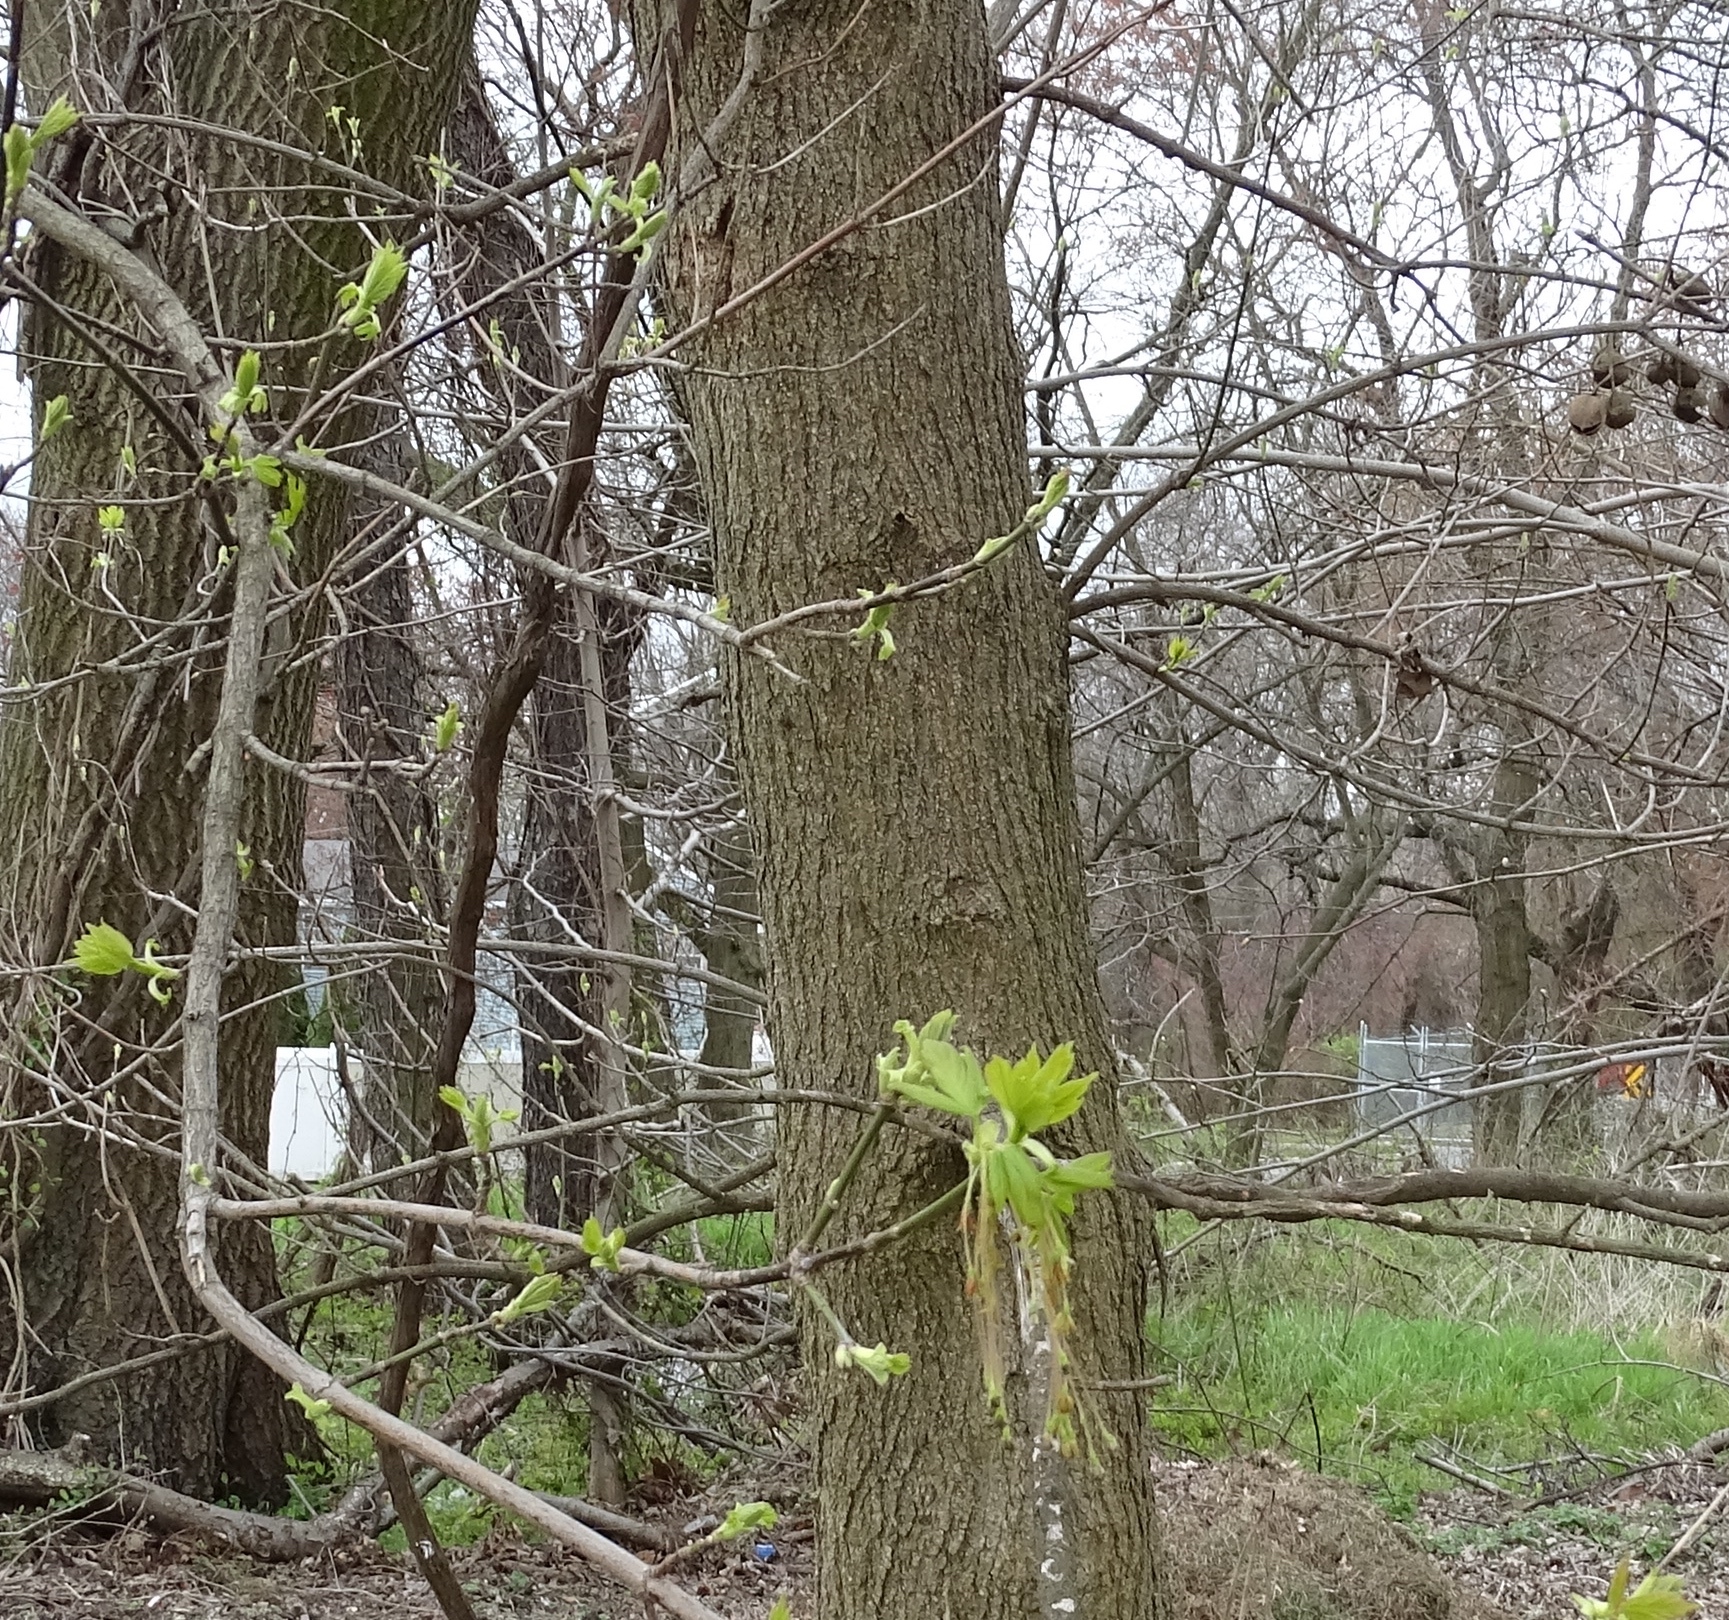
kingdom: Plantae
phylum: Tracheophyta
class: Magnoliopsida
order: Sapindales
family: Sapindaceae
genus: Acer
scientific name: Acer negundo
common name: Ashleaf maple
